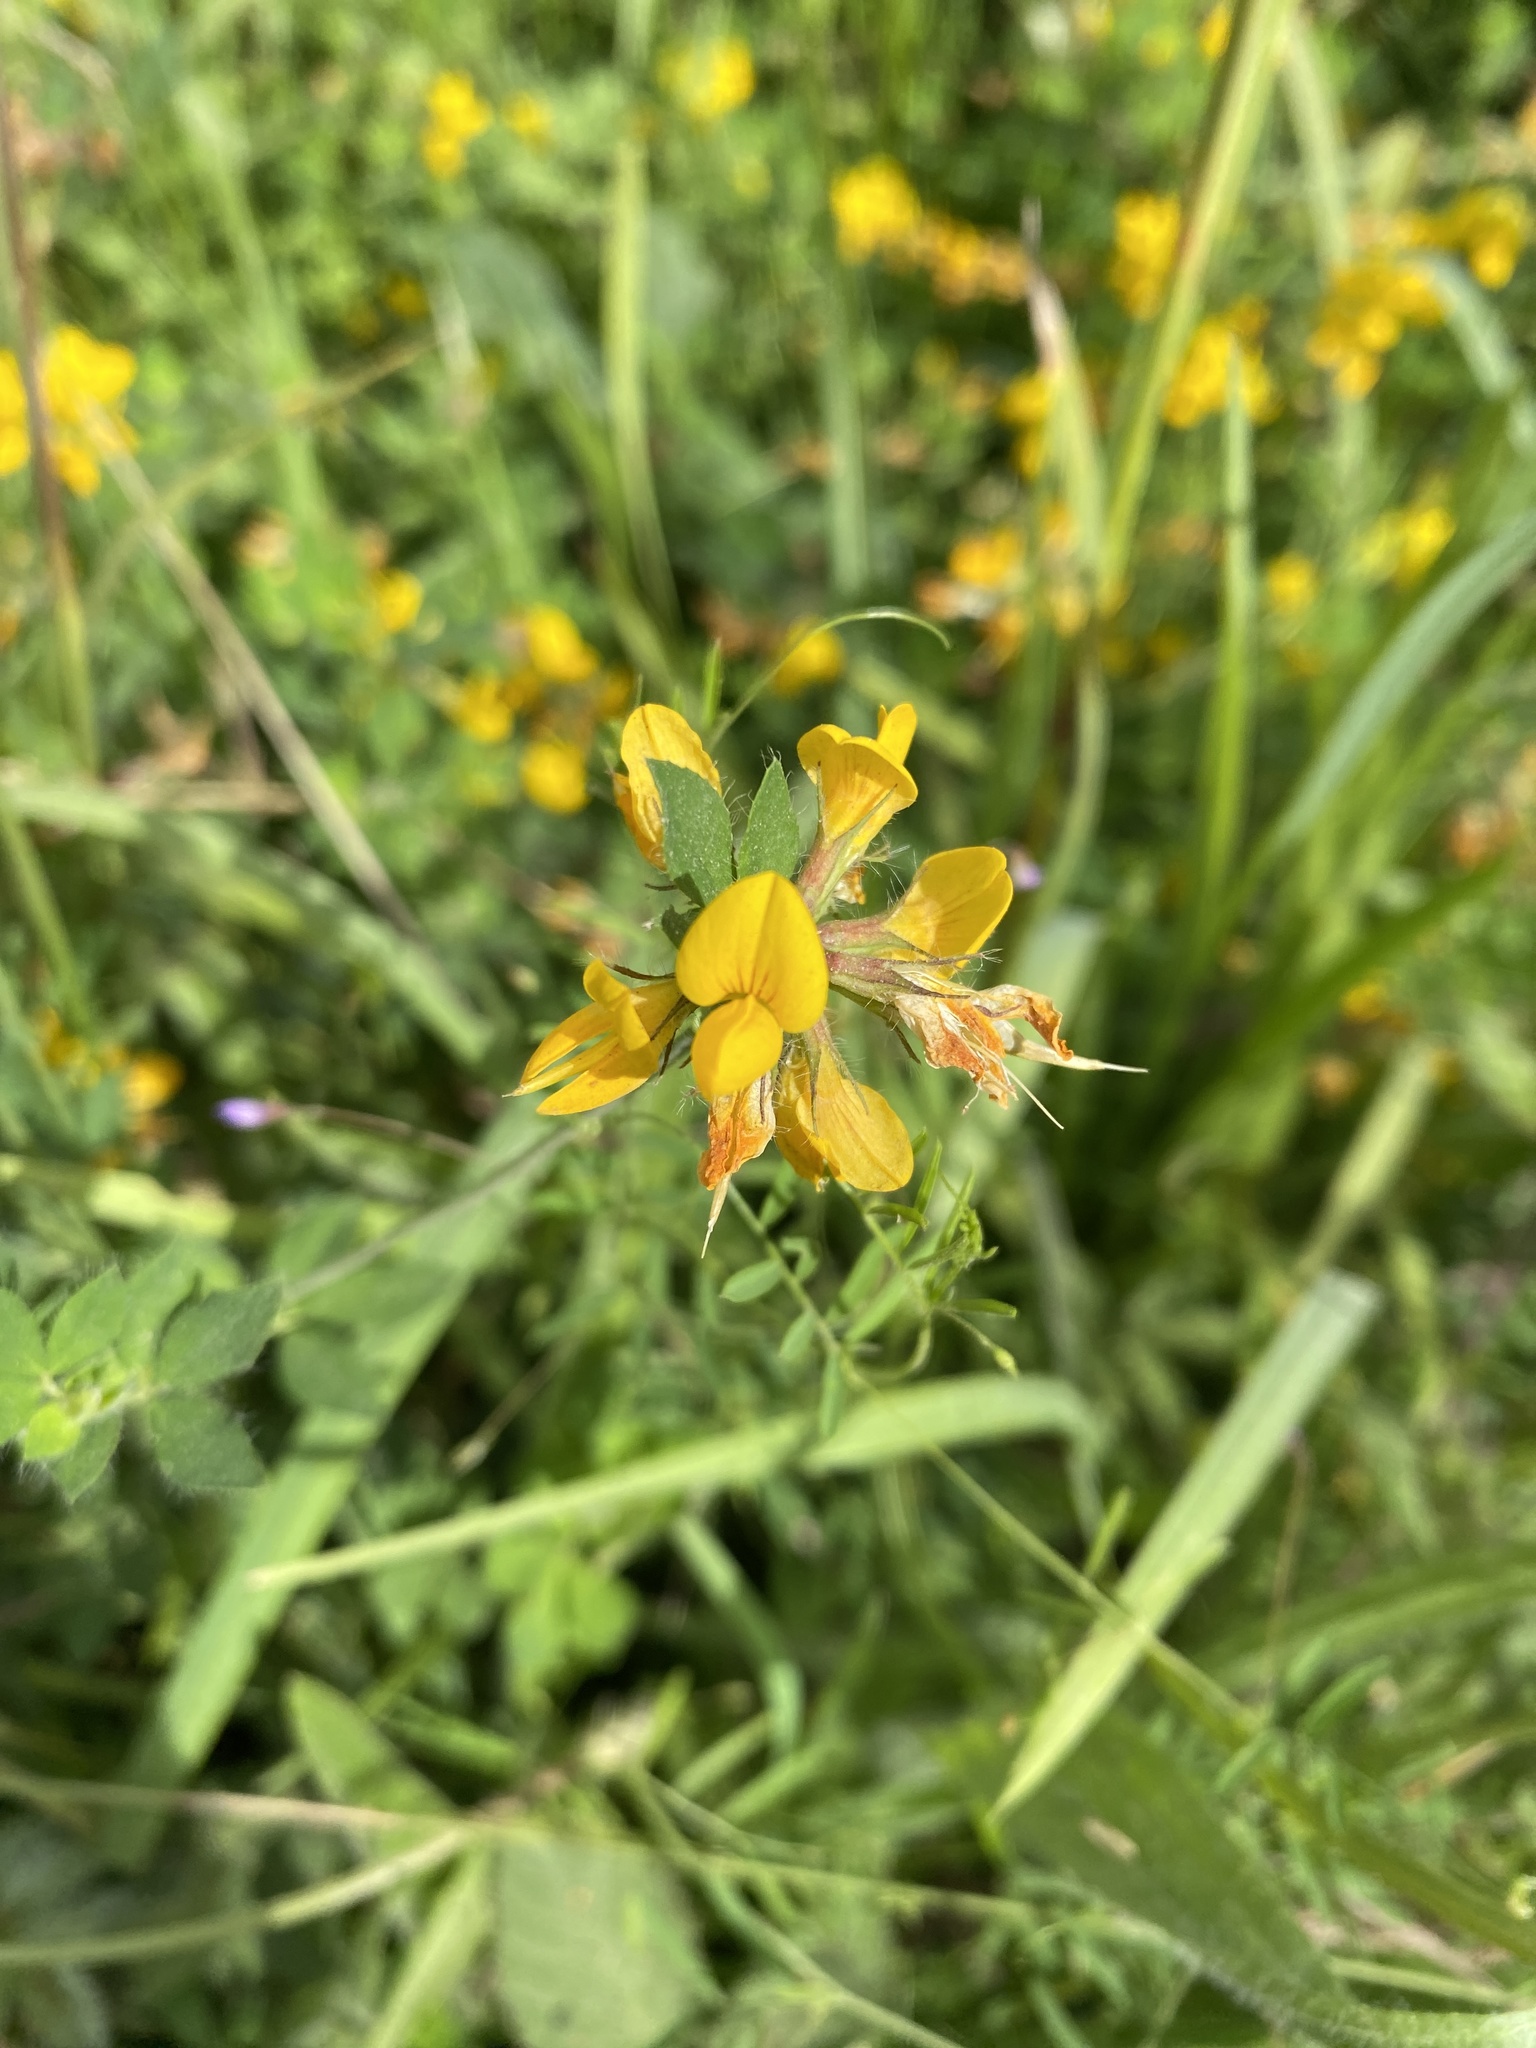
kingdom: Plantae
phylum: Tracheophyta
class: Magnoliopsida
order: Fabales
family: Fabaceae
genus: Lotus
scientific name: Lotus pedunculatus
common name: Greater birdsfoot-trefoil
